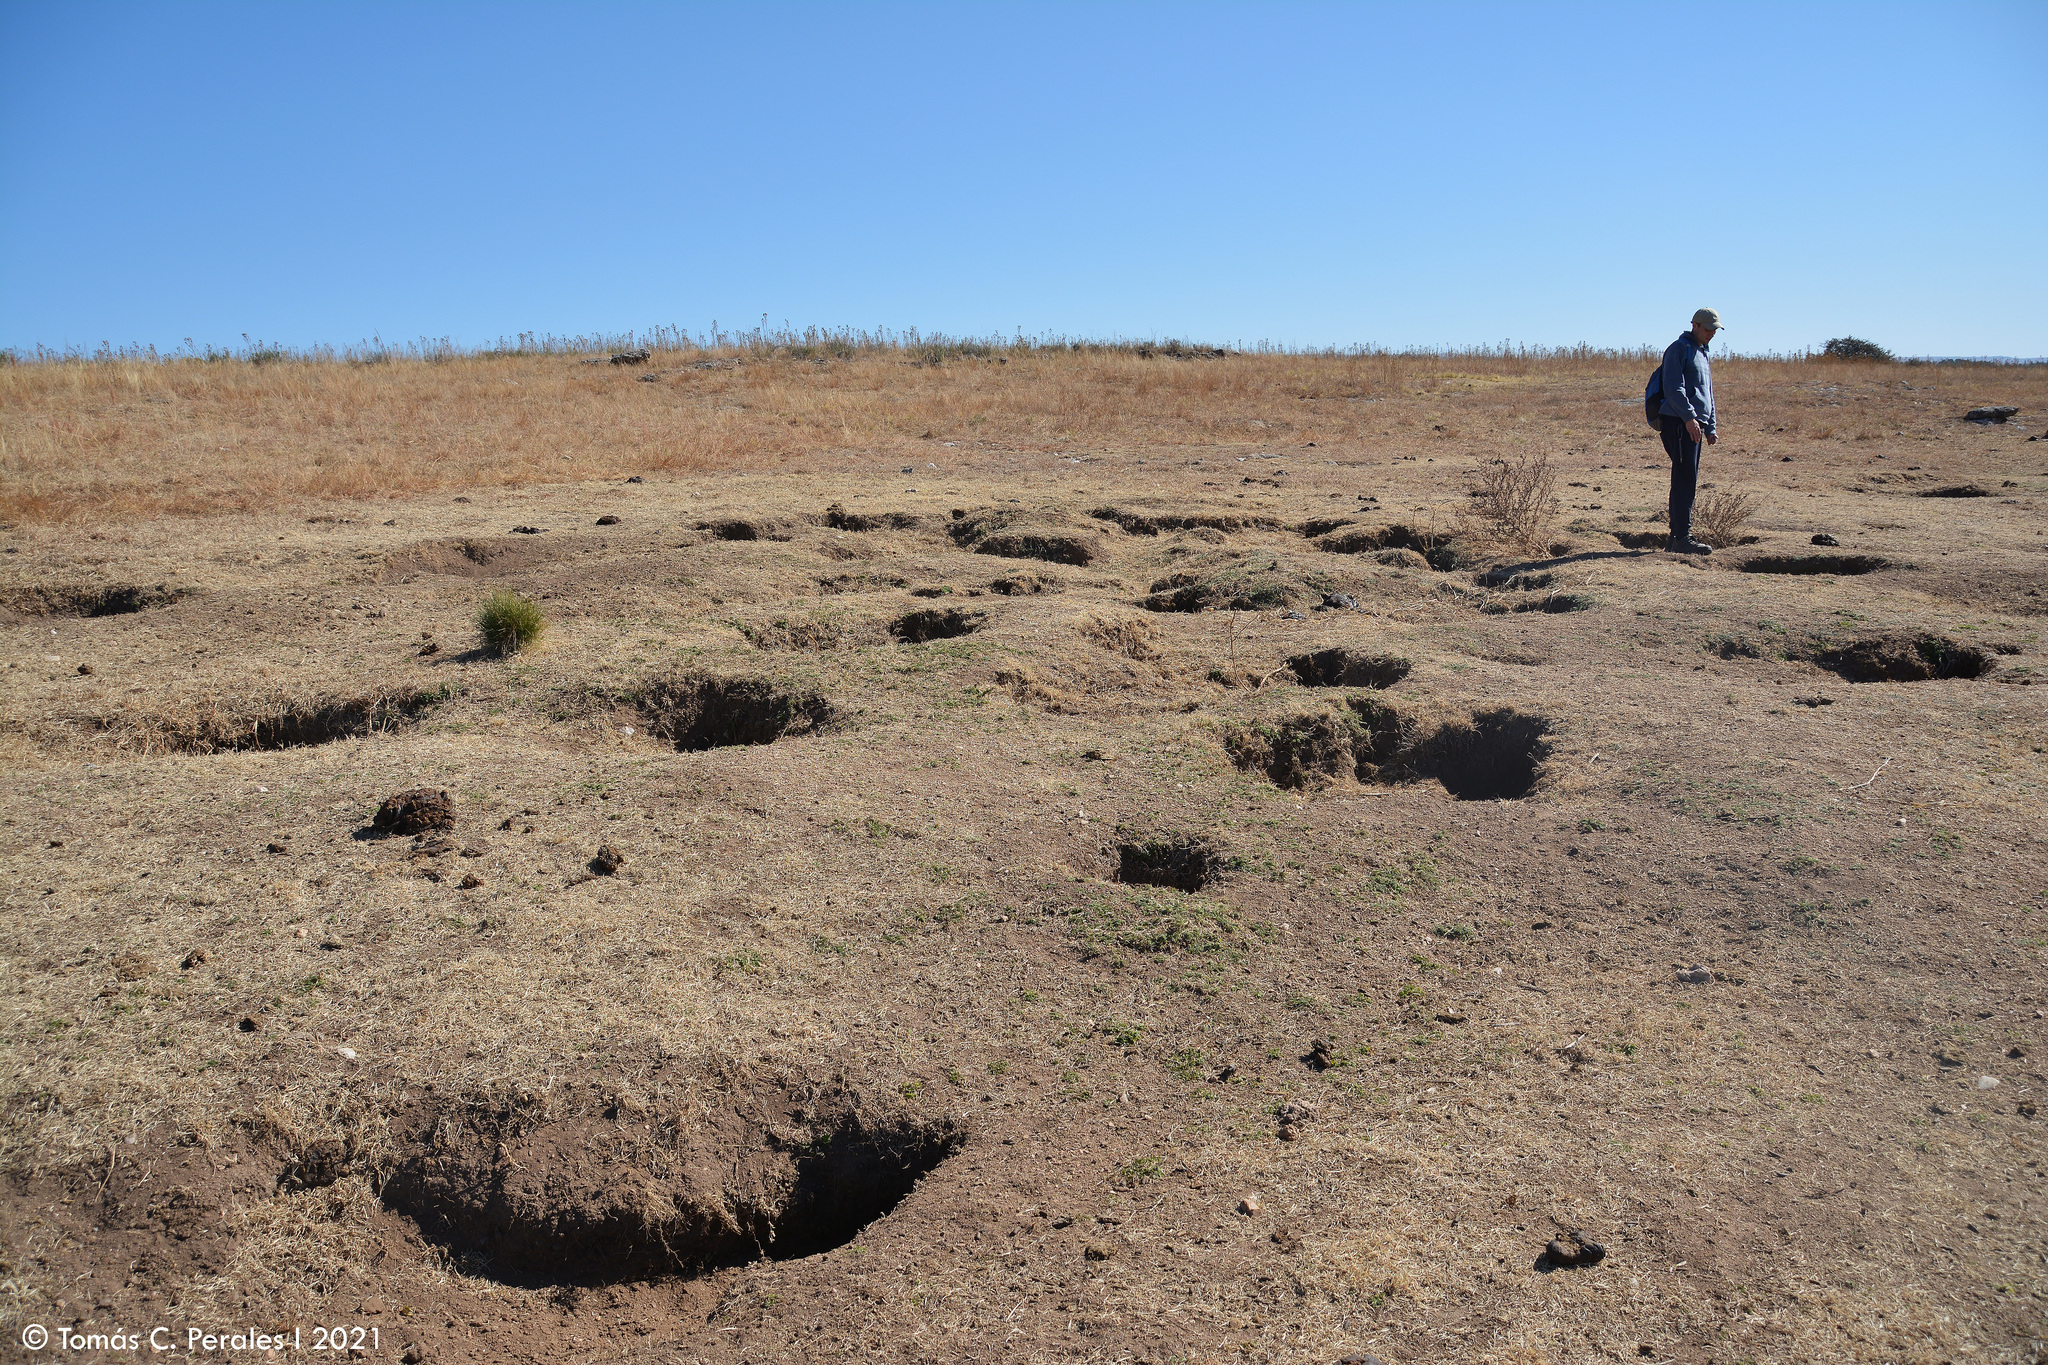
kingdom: Animalia
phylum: Chordata
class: Mammalia
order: Rodentia
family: Chinchillidae
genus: Lagostomus
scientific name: Lagostomus maximus
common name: Plains viscacha
